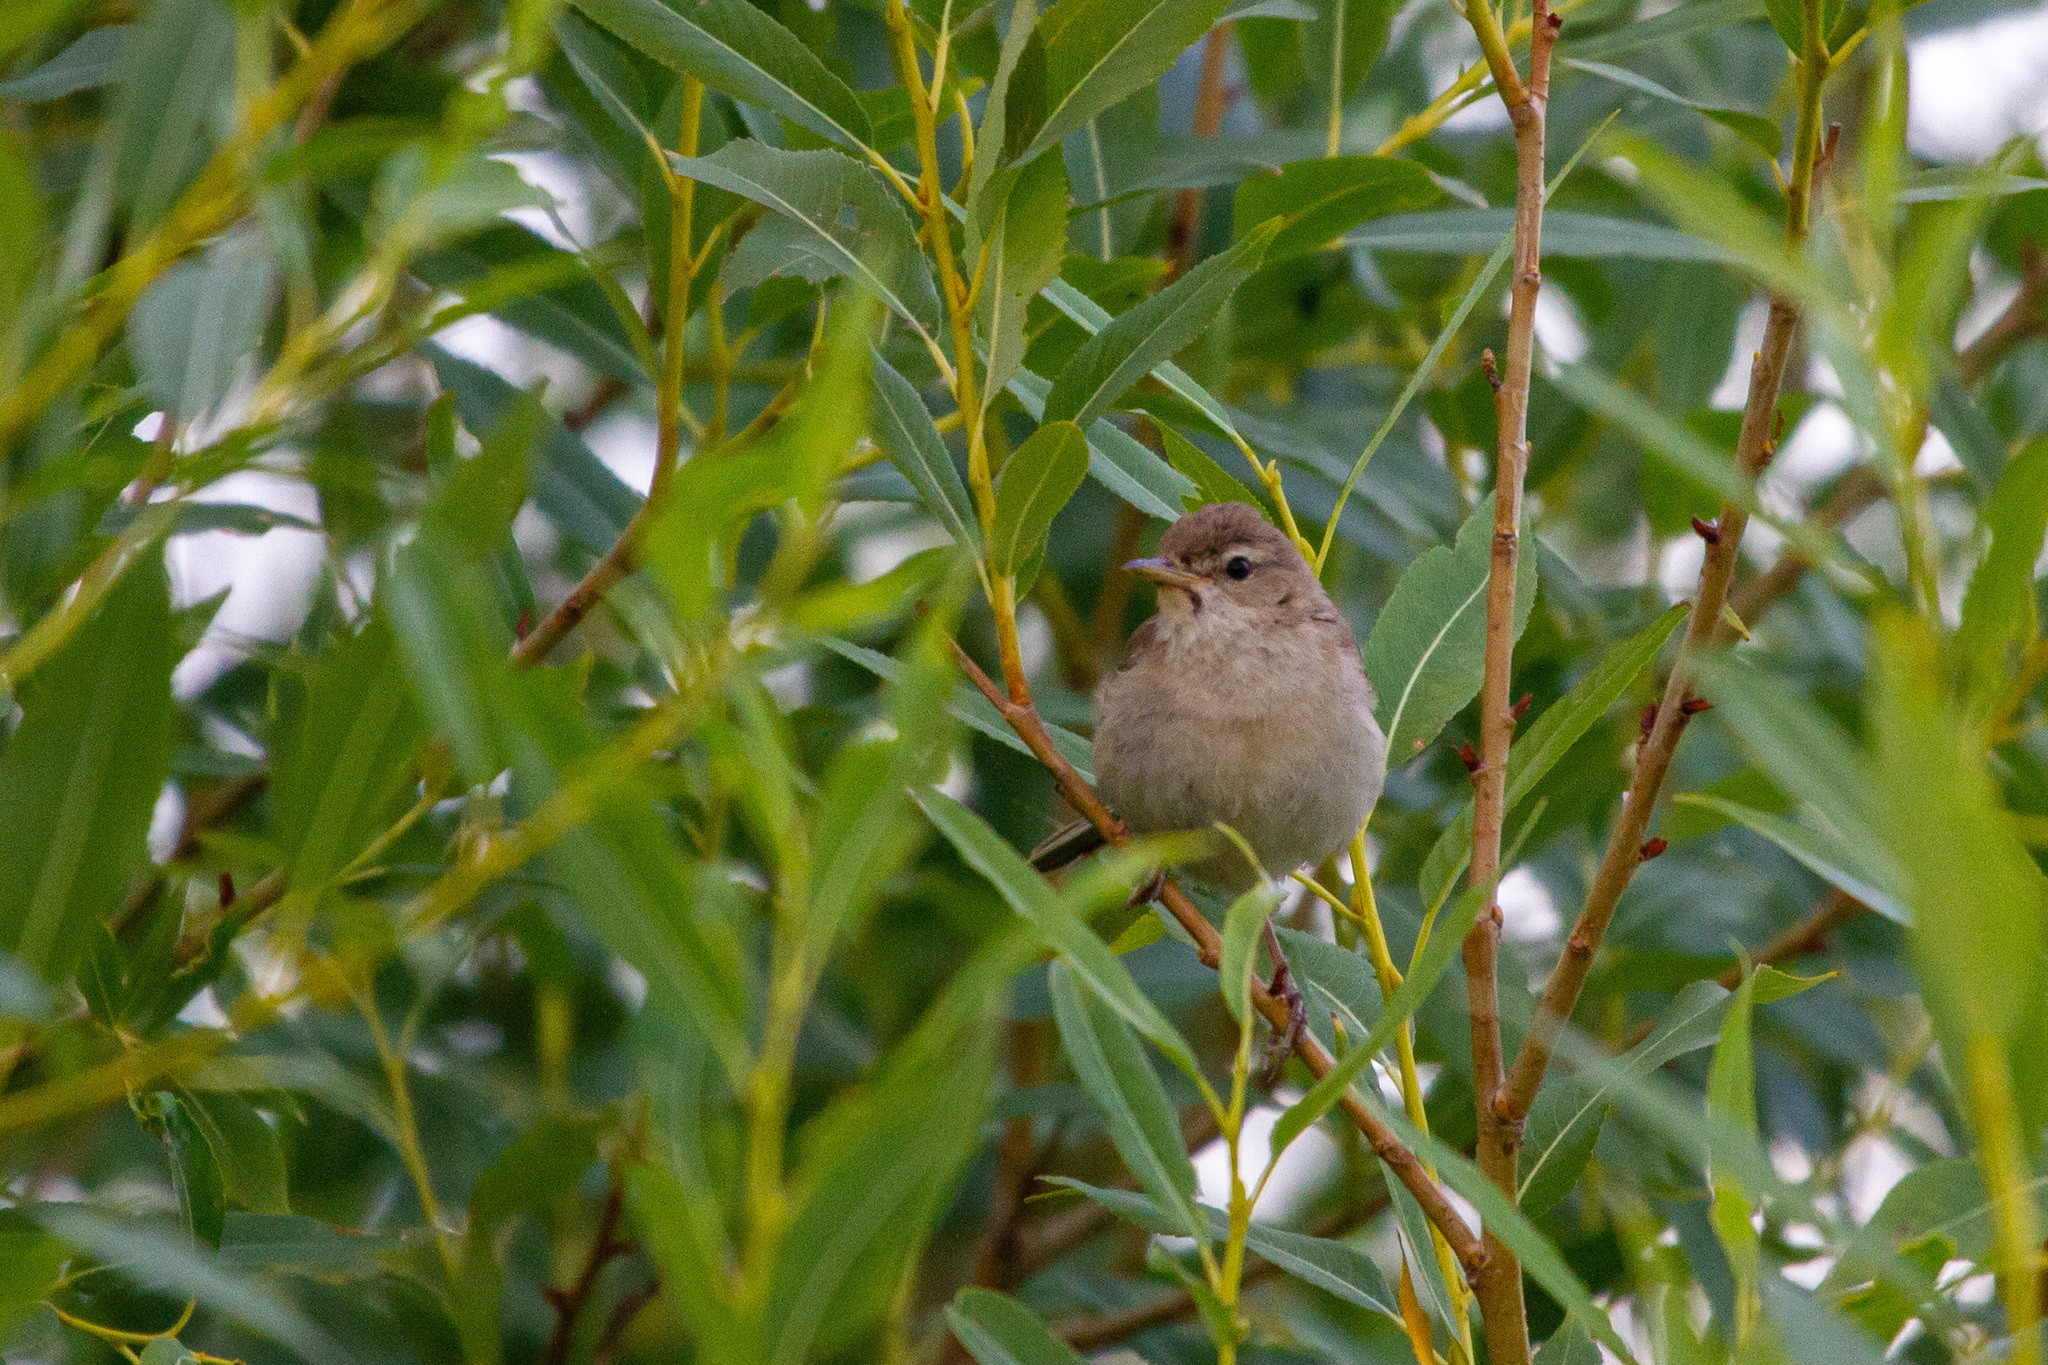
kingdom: Animalia
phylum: Chordata
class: Aves
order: Passeriformes
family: Acrocephalidae
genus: Iduna
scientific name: Iduna caligata
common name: Booted warbler
